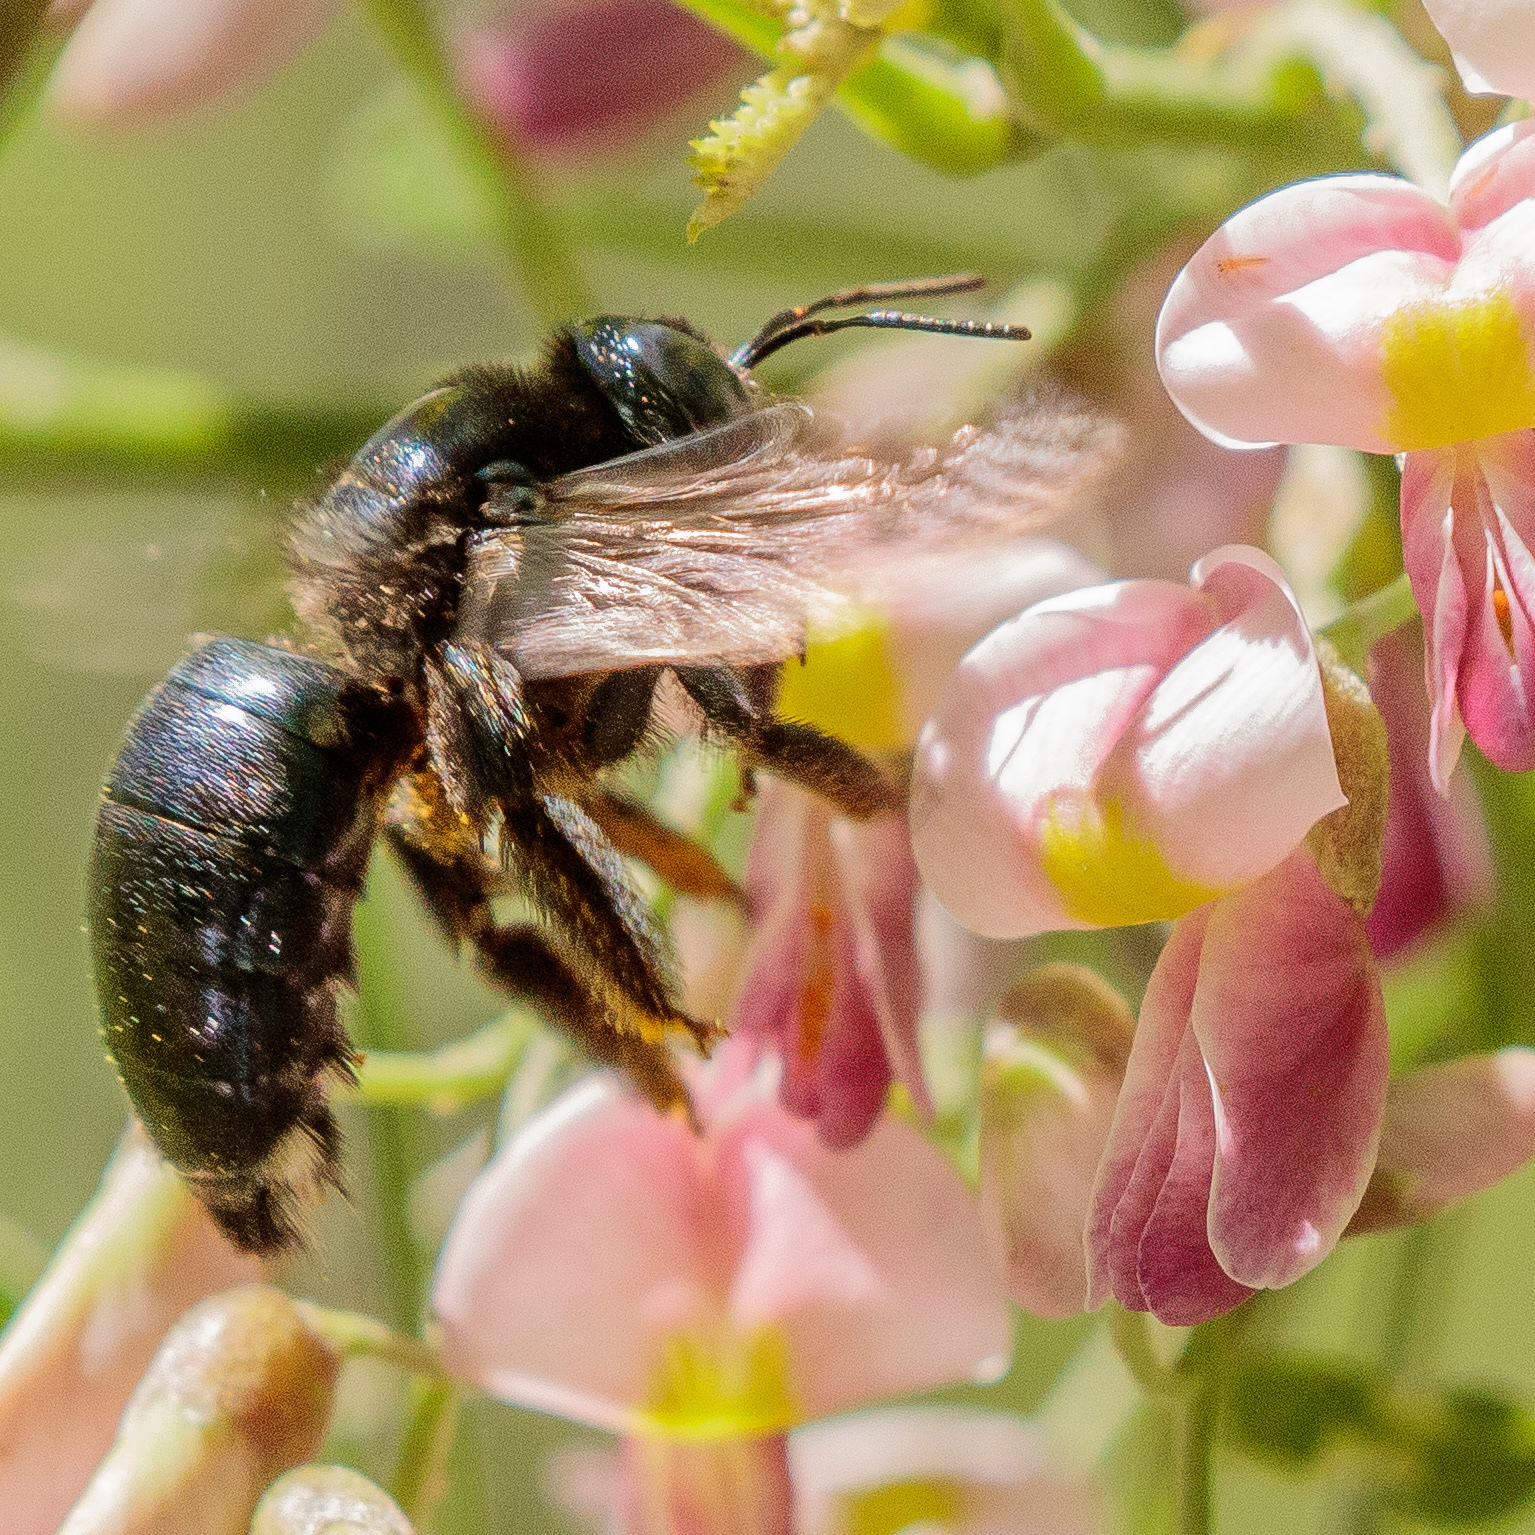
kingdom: Animalia
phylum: Arthropoda
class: Insecta
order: Hymenoptera
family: Apidae
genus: Xylocopa
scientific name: Xylocopa micans
